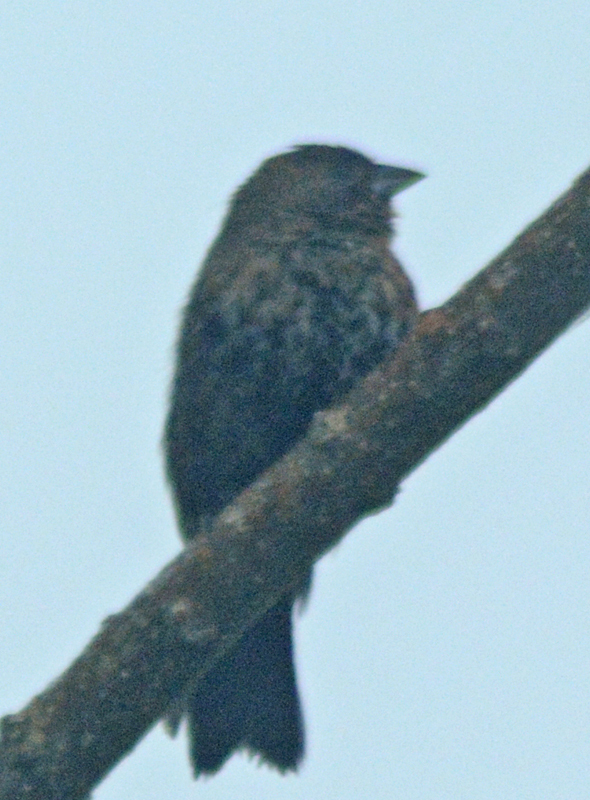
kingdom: Animalia
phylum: Chordata
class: Aves
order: Passeriformes
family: Thraupidae
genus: Volatinia
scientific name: Volatinia jacarina
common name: Blue-black grassquit
